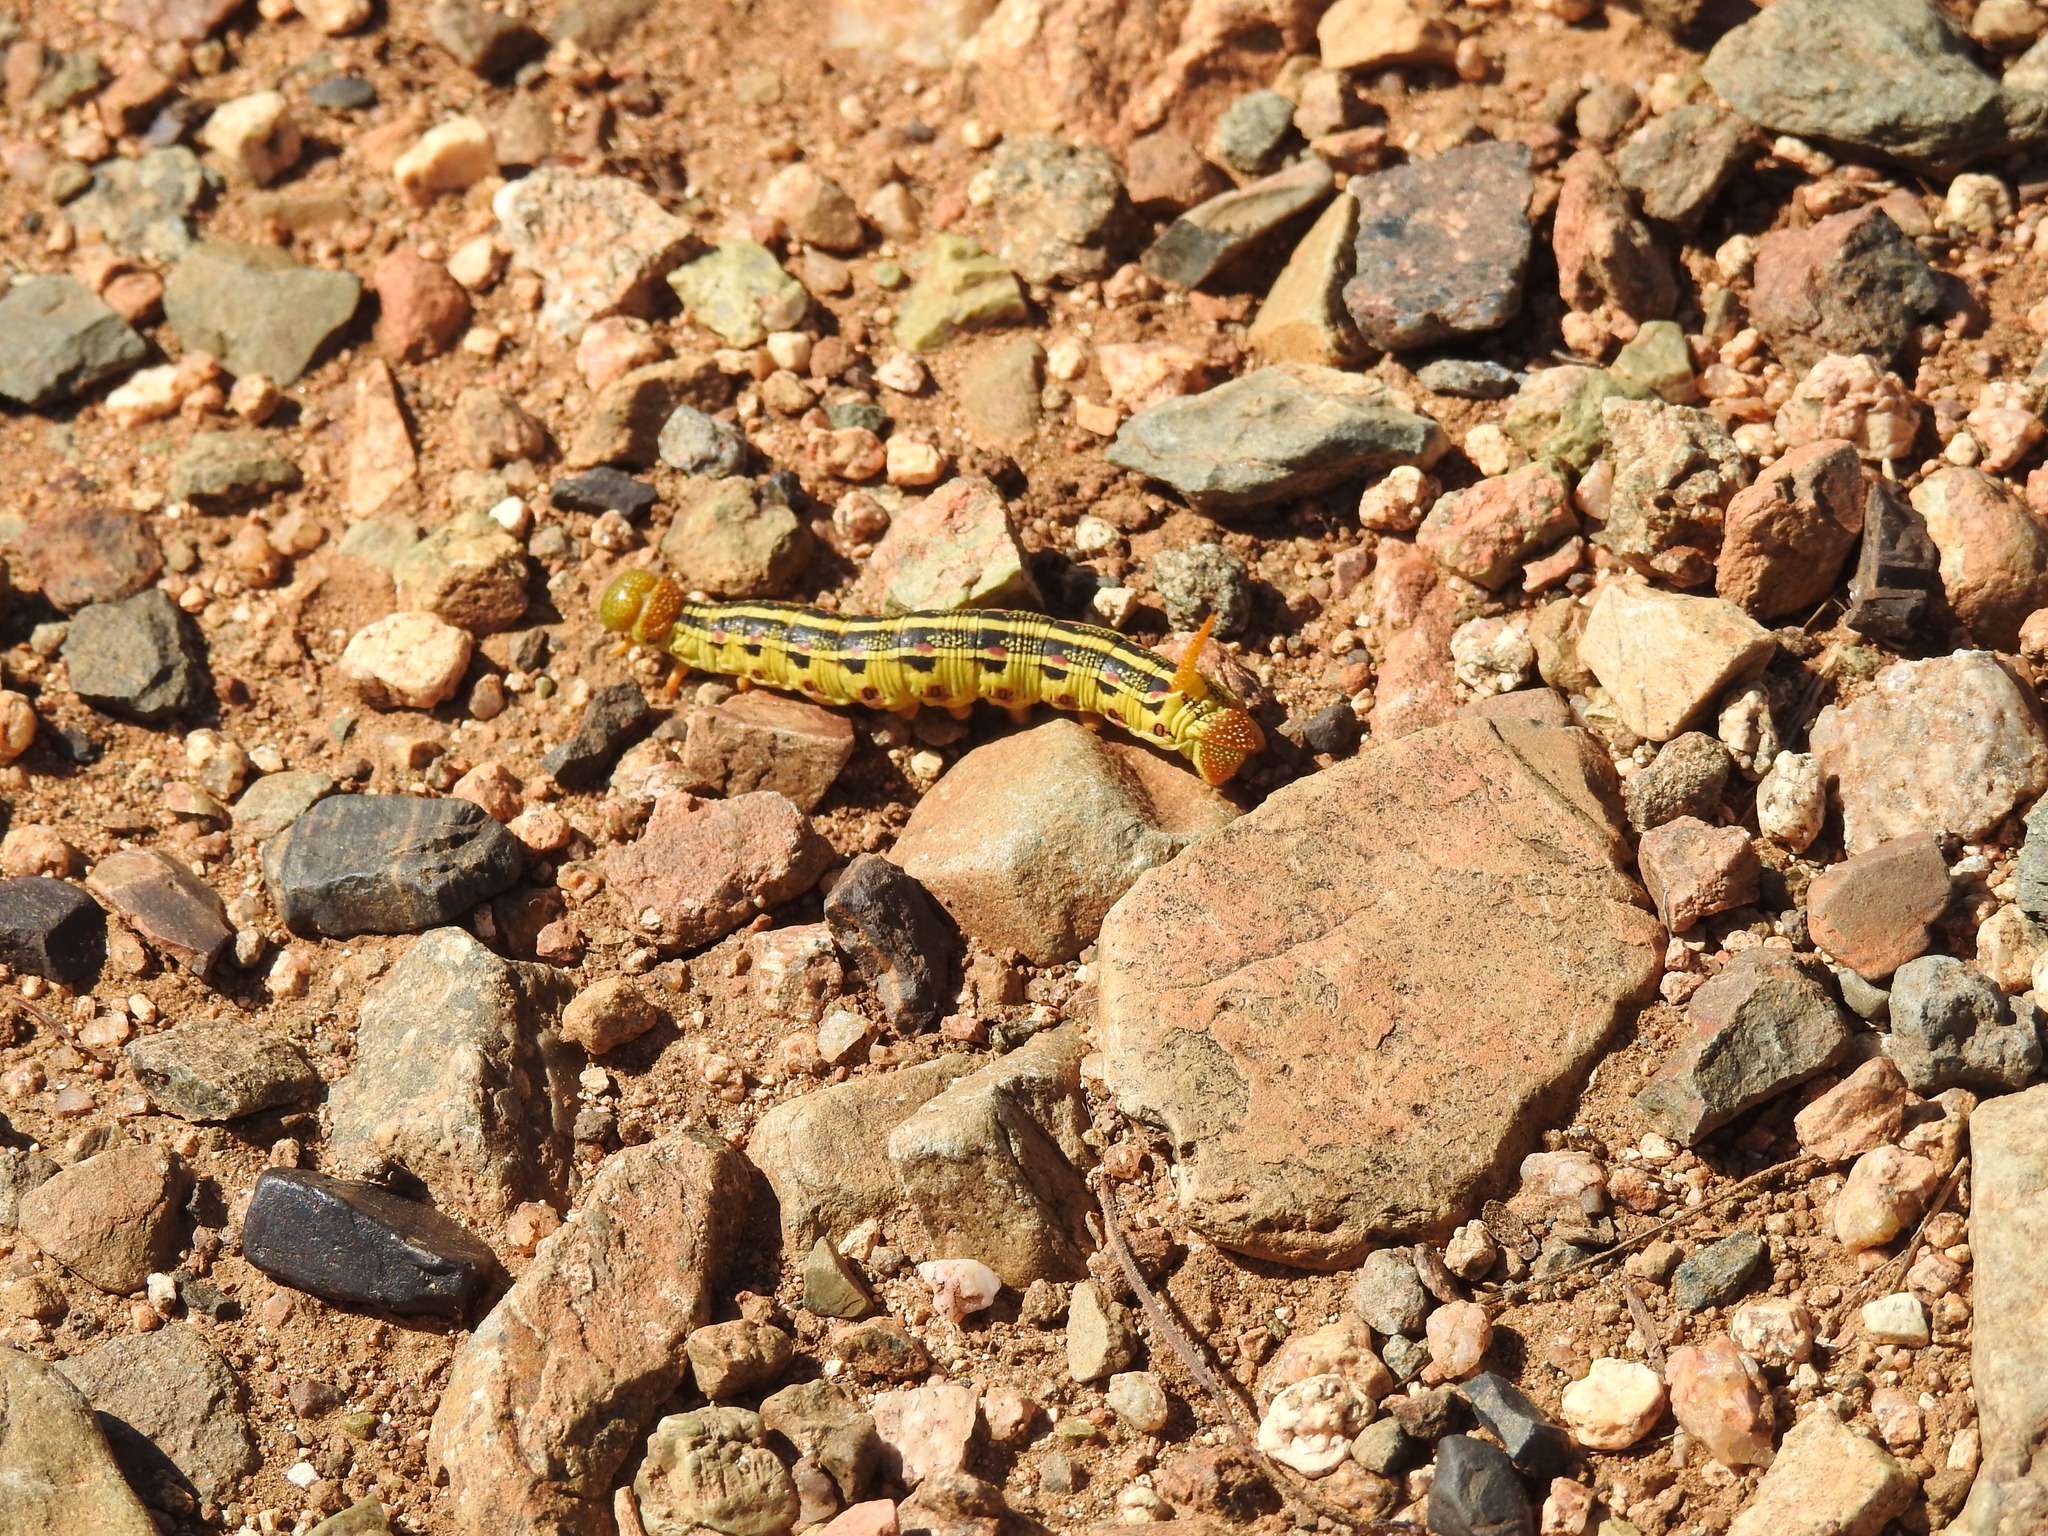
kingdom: Animalia
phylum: Arthropoda
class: Insecta
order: Lepidoptera
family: Sphingidae
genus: Hyles
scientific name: Hyles lineata
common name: White-lined sphinx
